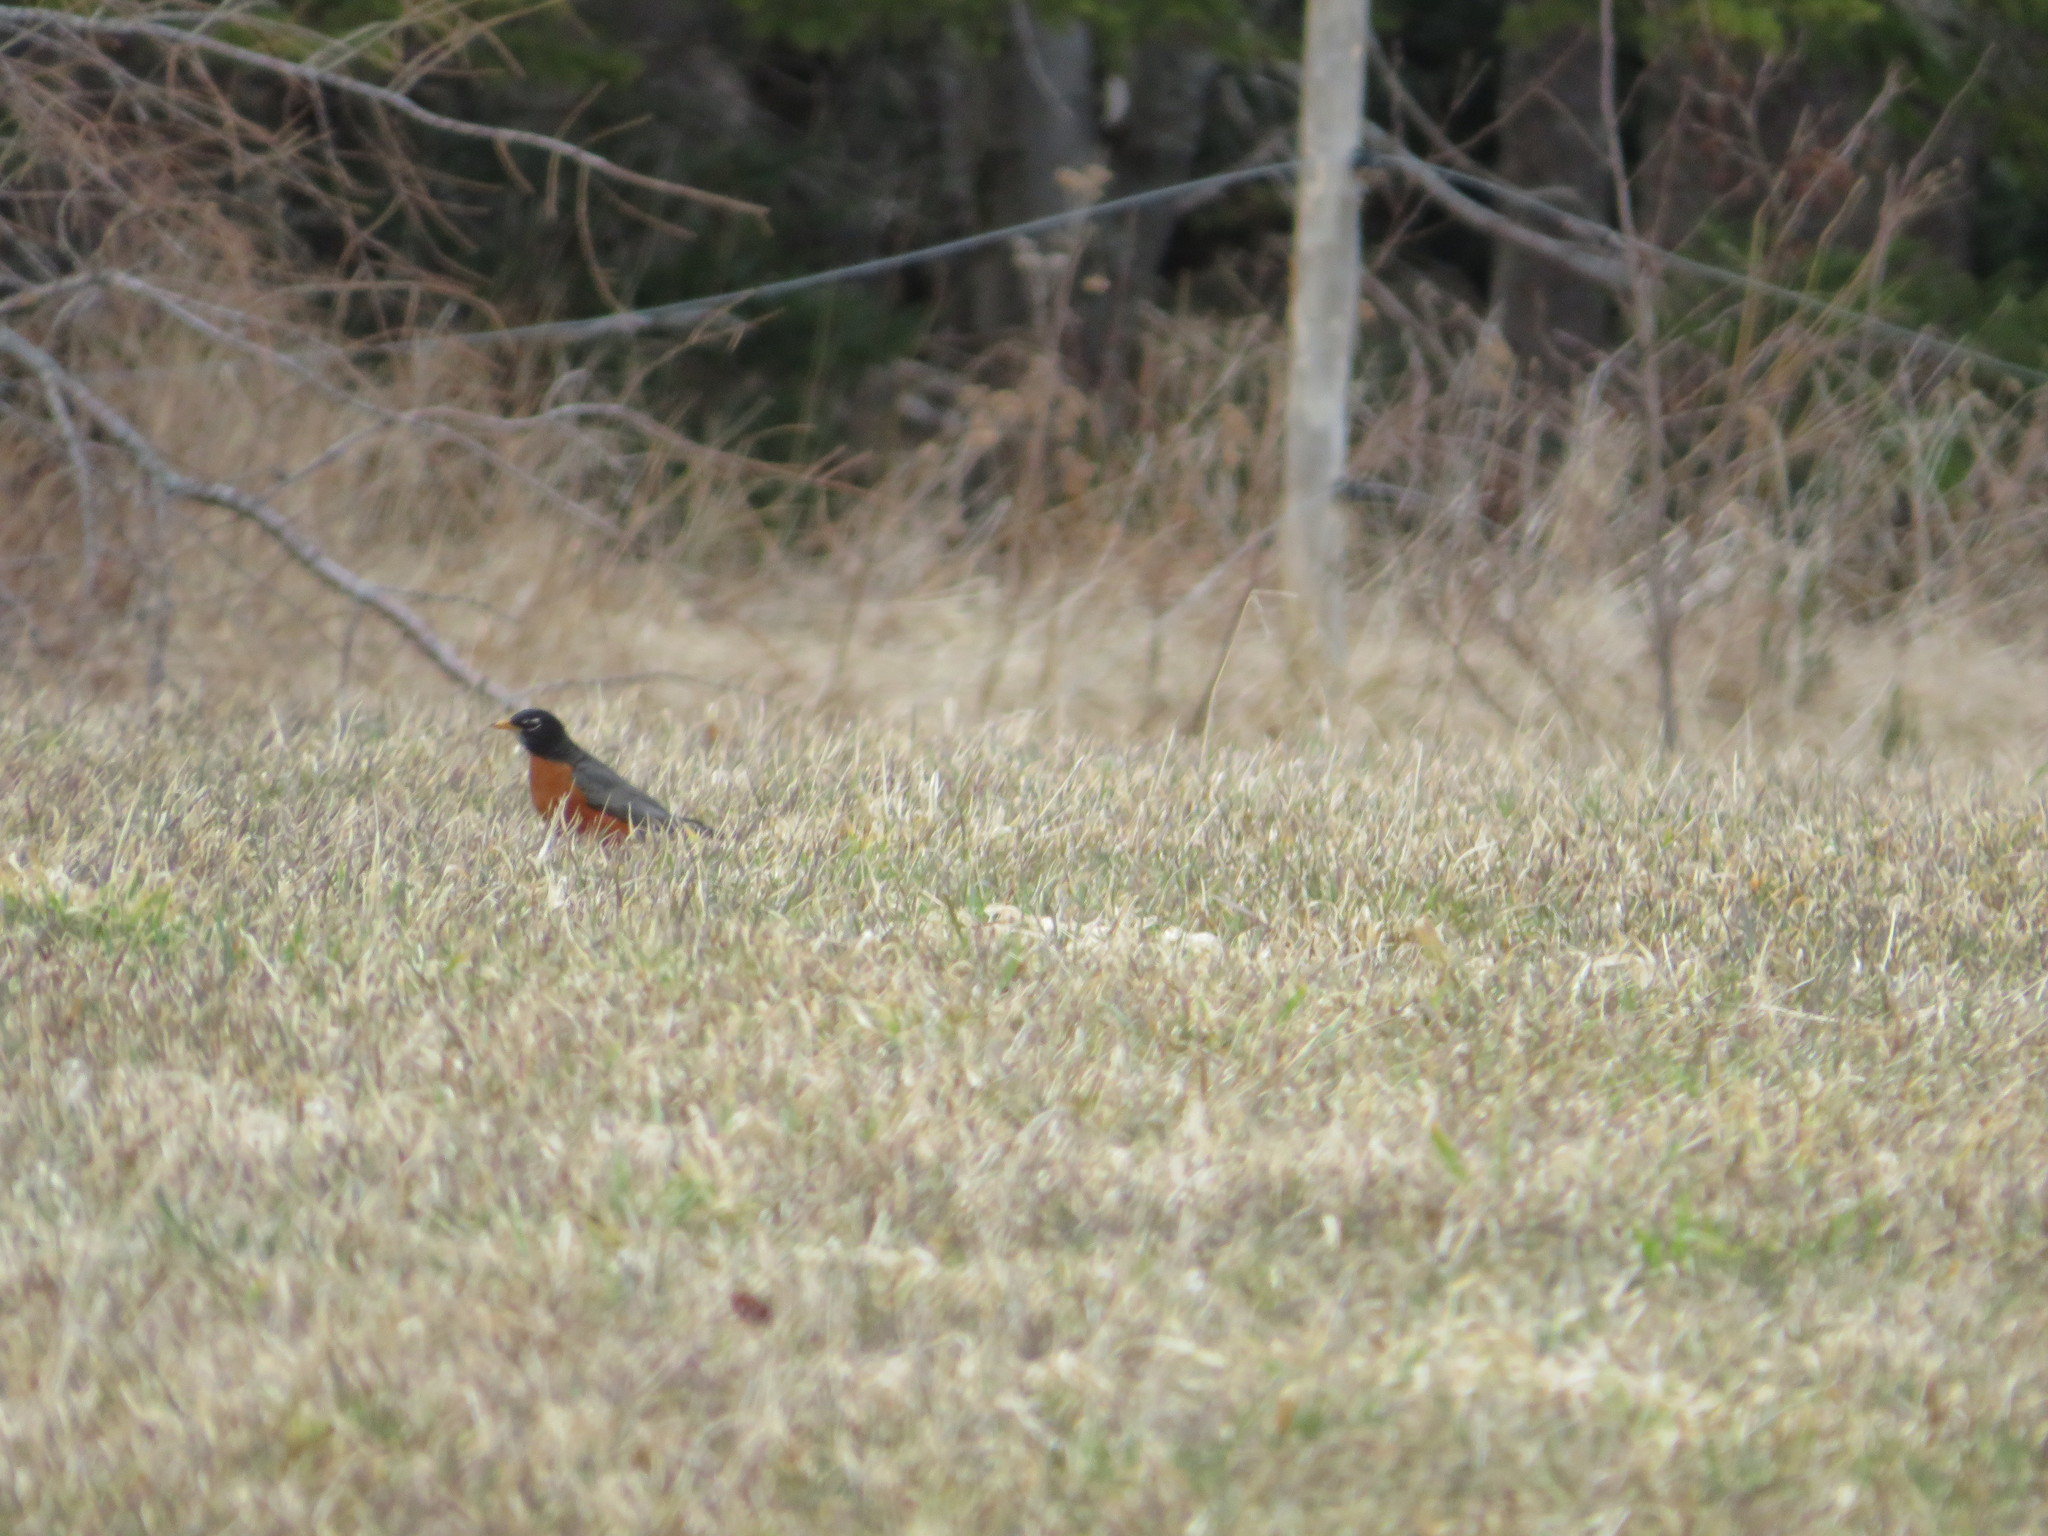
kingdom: Animalia
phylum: Chordata
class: Aves
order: Passeriformes
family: Turdidae
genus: Turdus
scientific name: Turdus migratorius
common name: American robin
